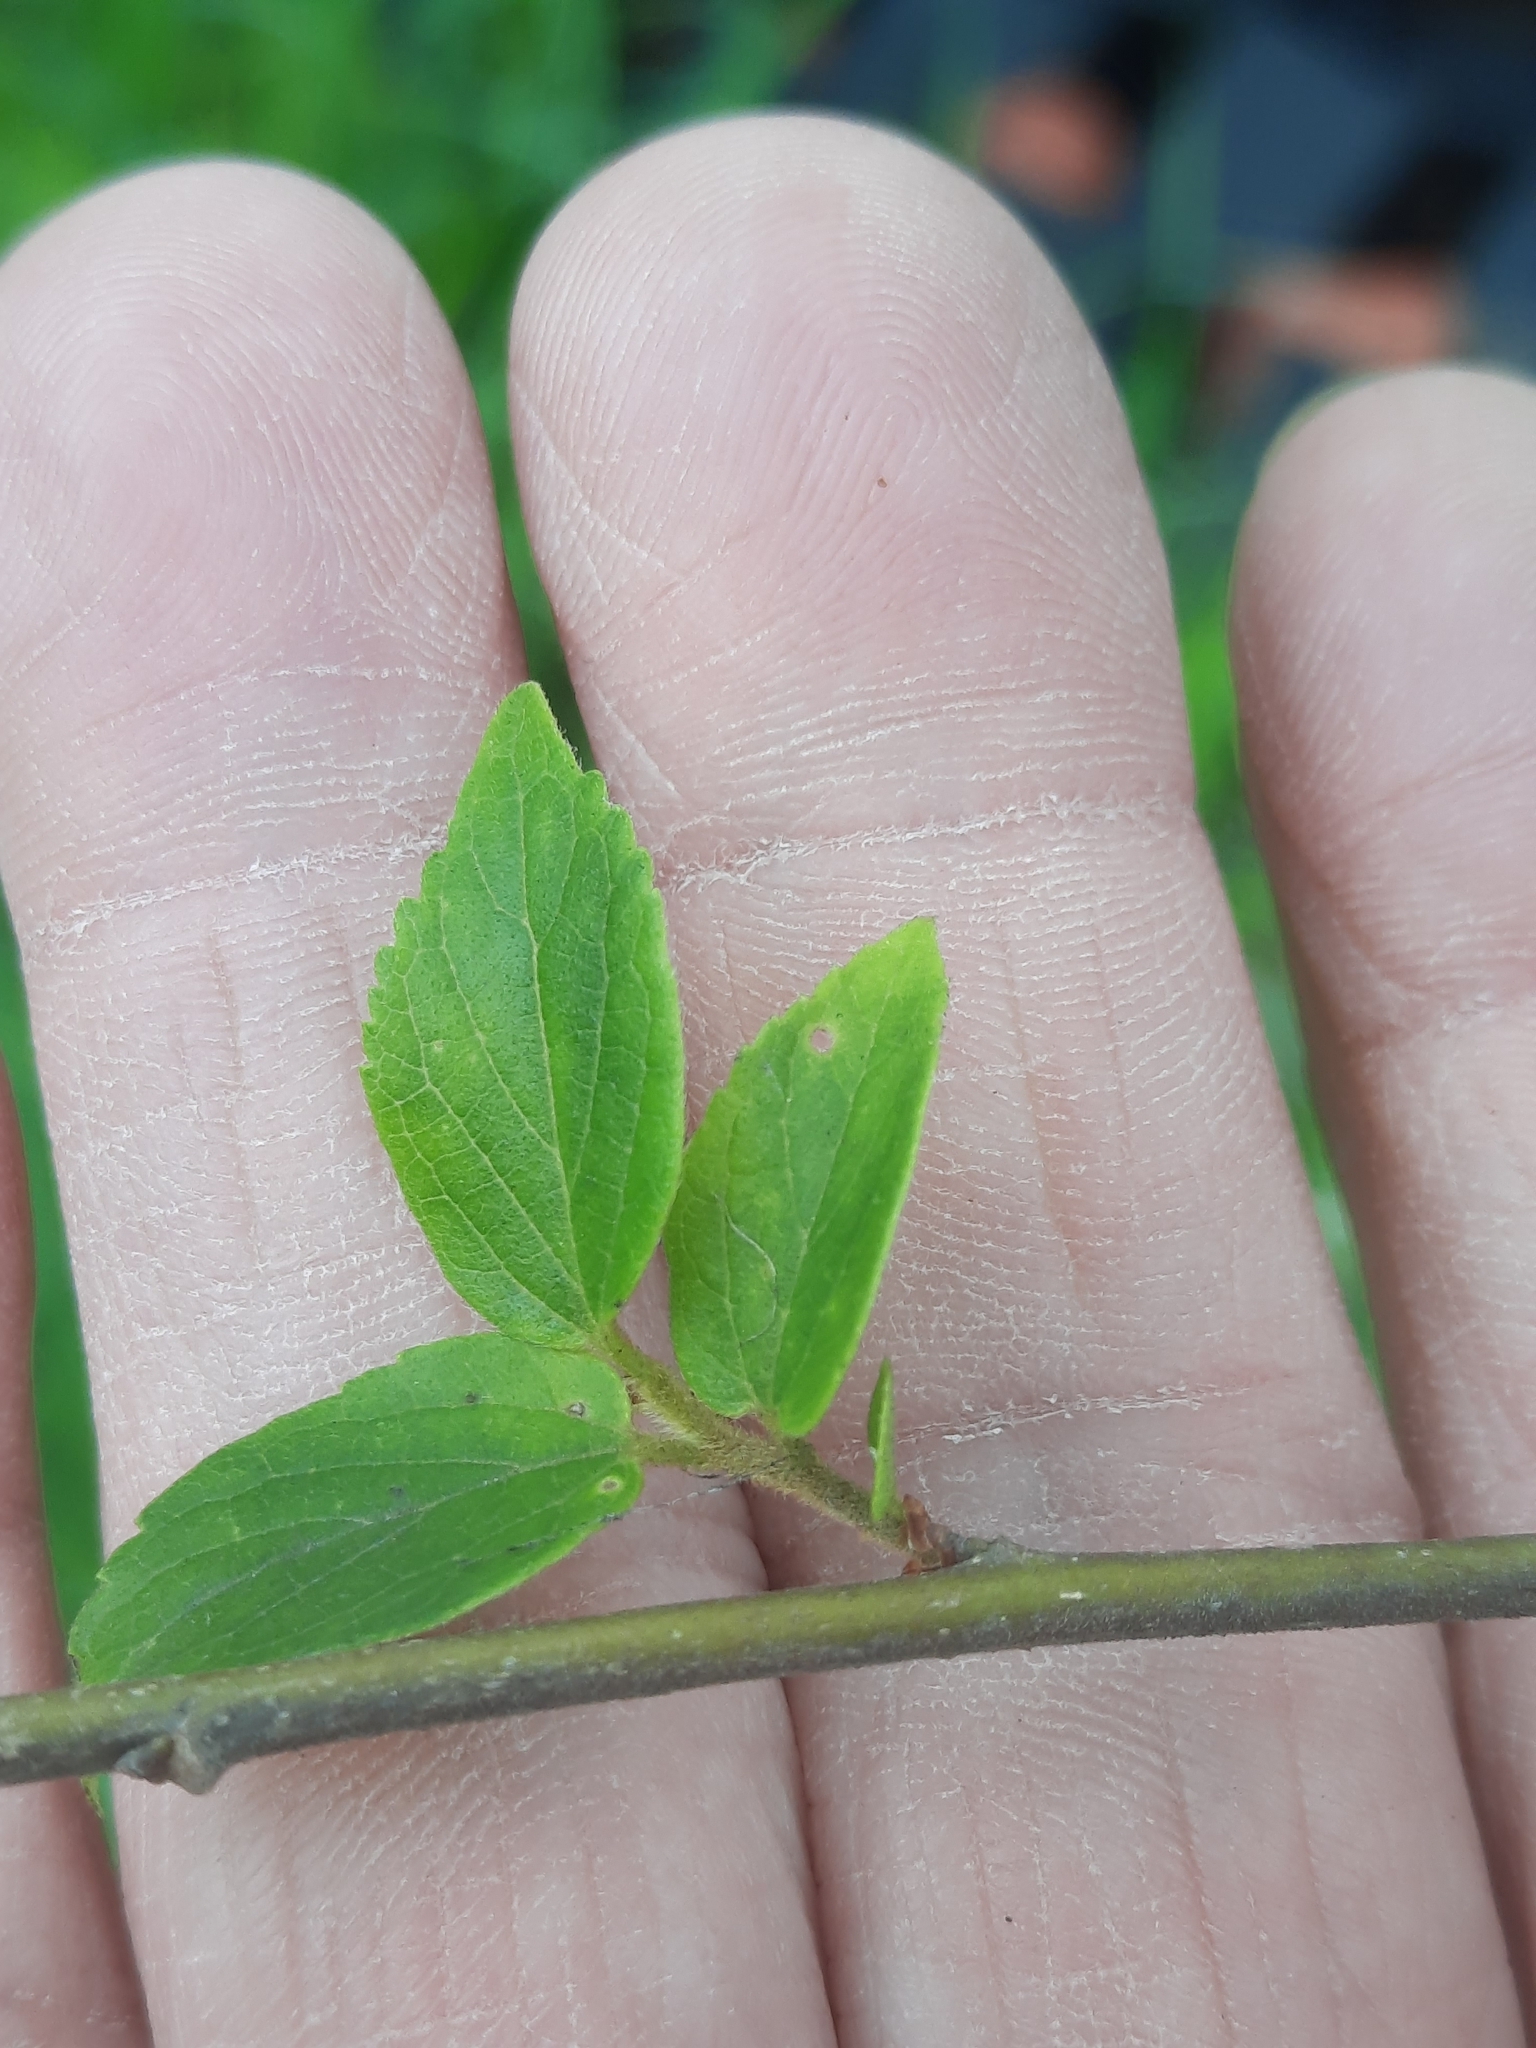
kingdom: Plantae
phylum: Tracheophyta
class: Magnoliopsida
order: Rosales
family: Cannabaceae
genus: Celtis
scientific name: Celtis sinensis
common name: Chinese hackberry
